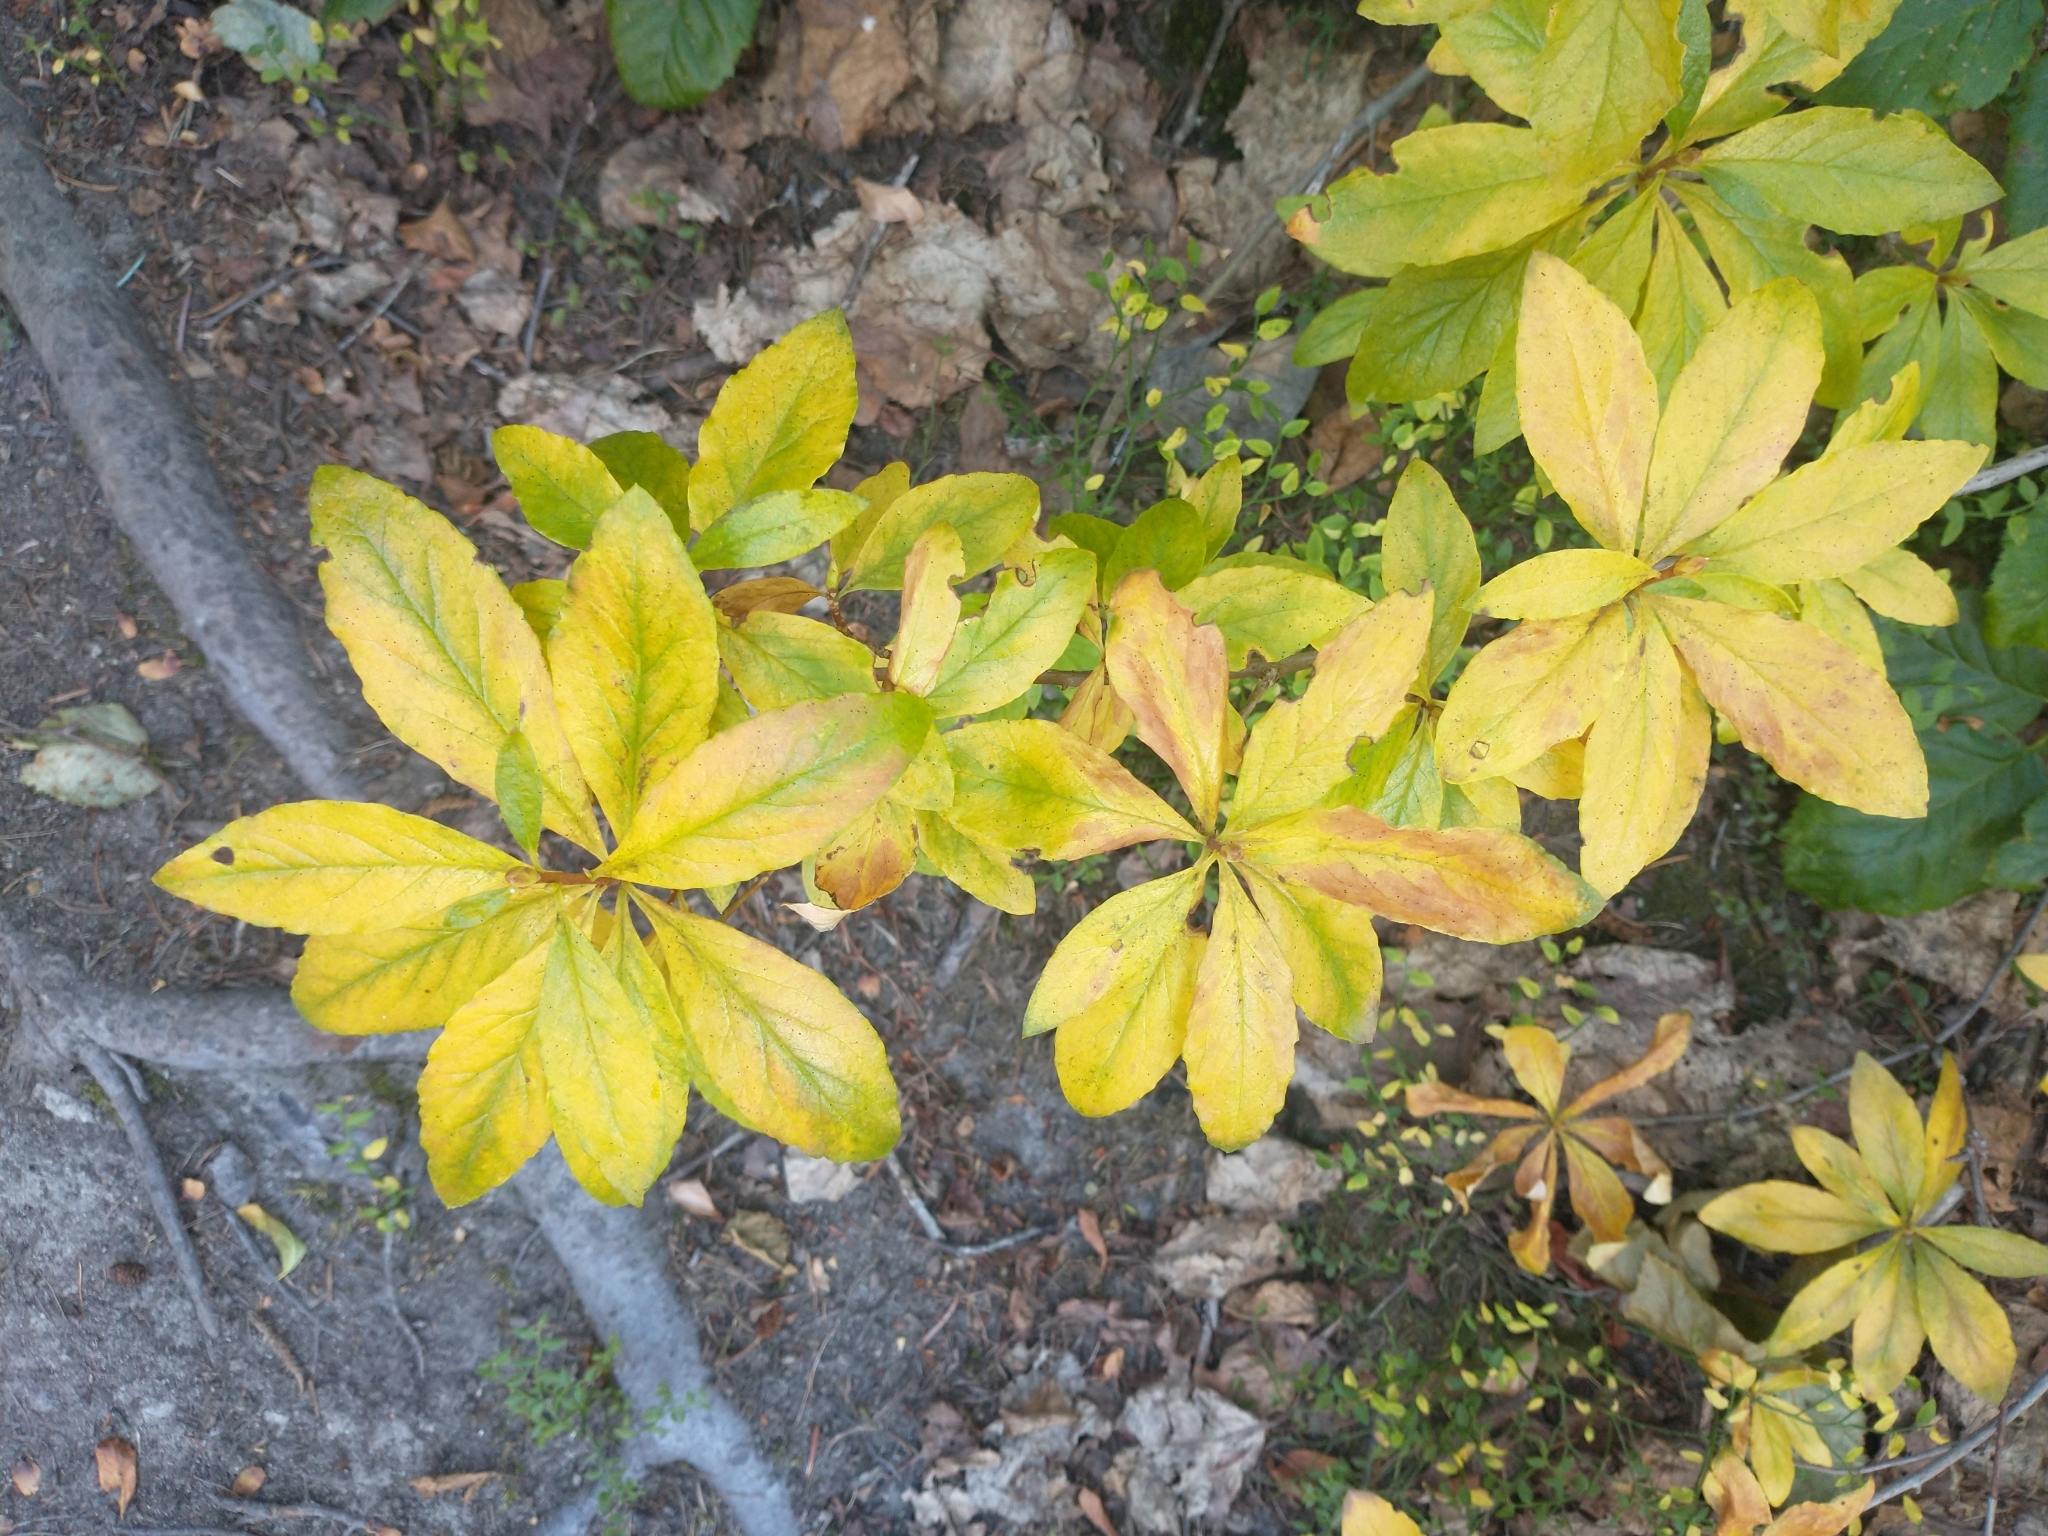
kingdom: Plantae
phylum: Tracheophyta
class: Magnoliopsida
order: Ericales
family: Ericaceae
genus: Rhododendron
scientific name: Rhododendron albiflorum
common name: White rhododendron
